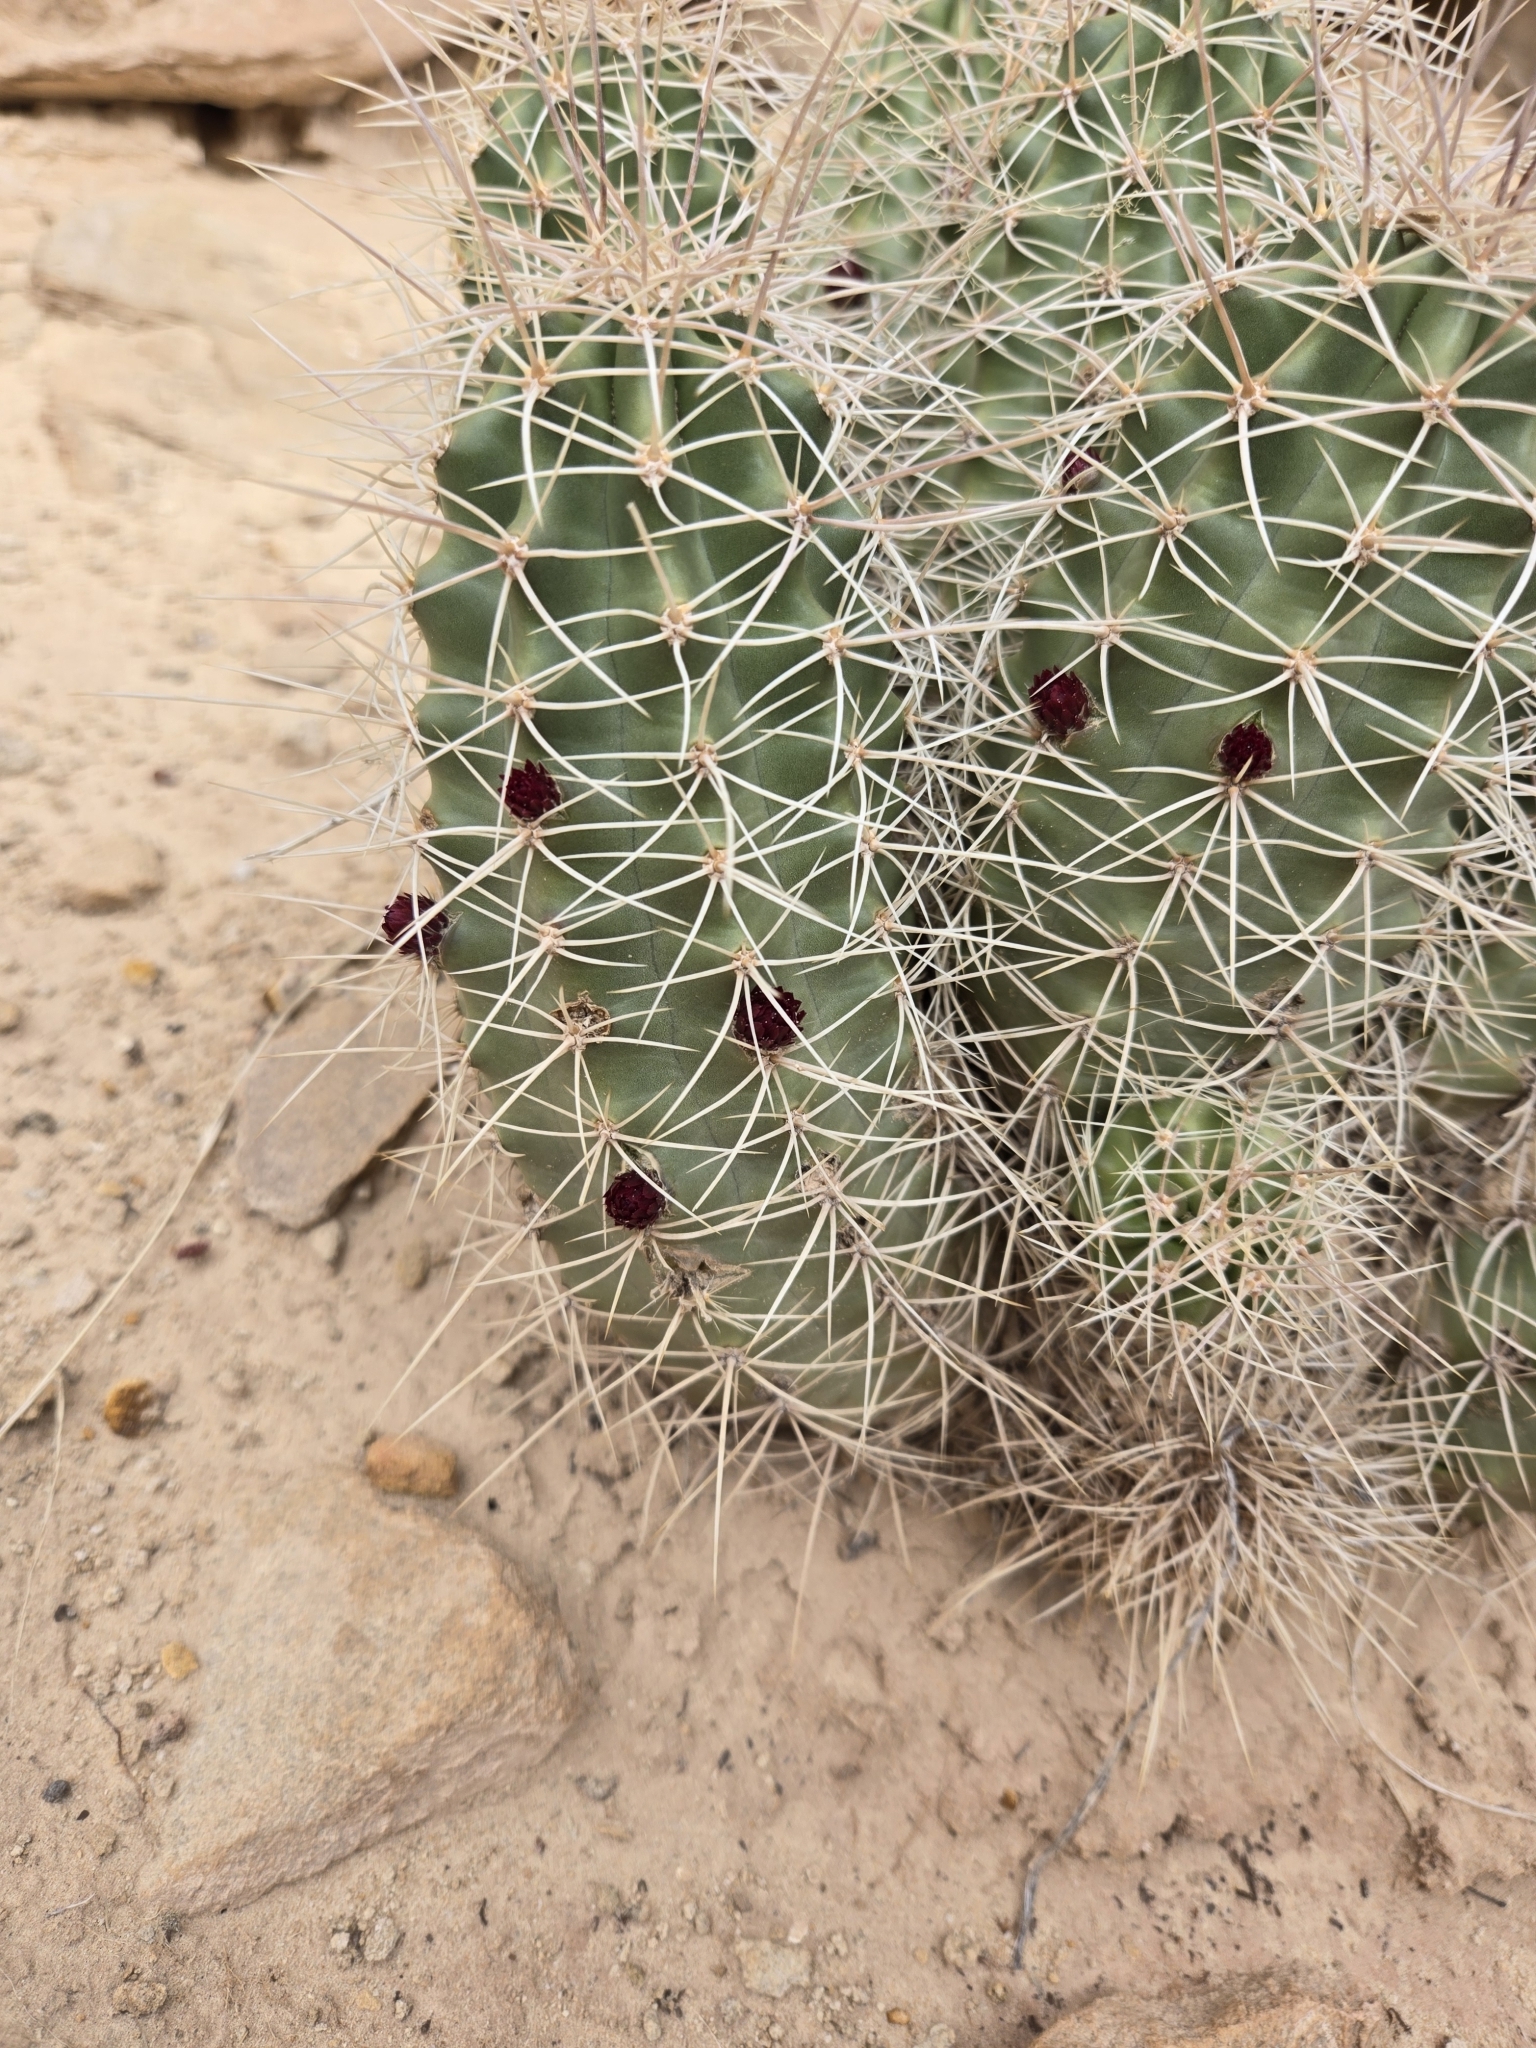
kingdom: Plantae
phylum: Tracheophyta
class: Magnoliopsida
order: Caryophyllales
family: Cactaceae
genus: Echinocereus
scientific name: Echinocereus triglochidiatus
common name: Claretcup hedgehog
